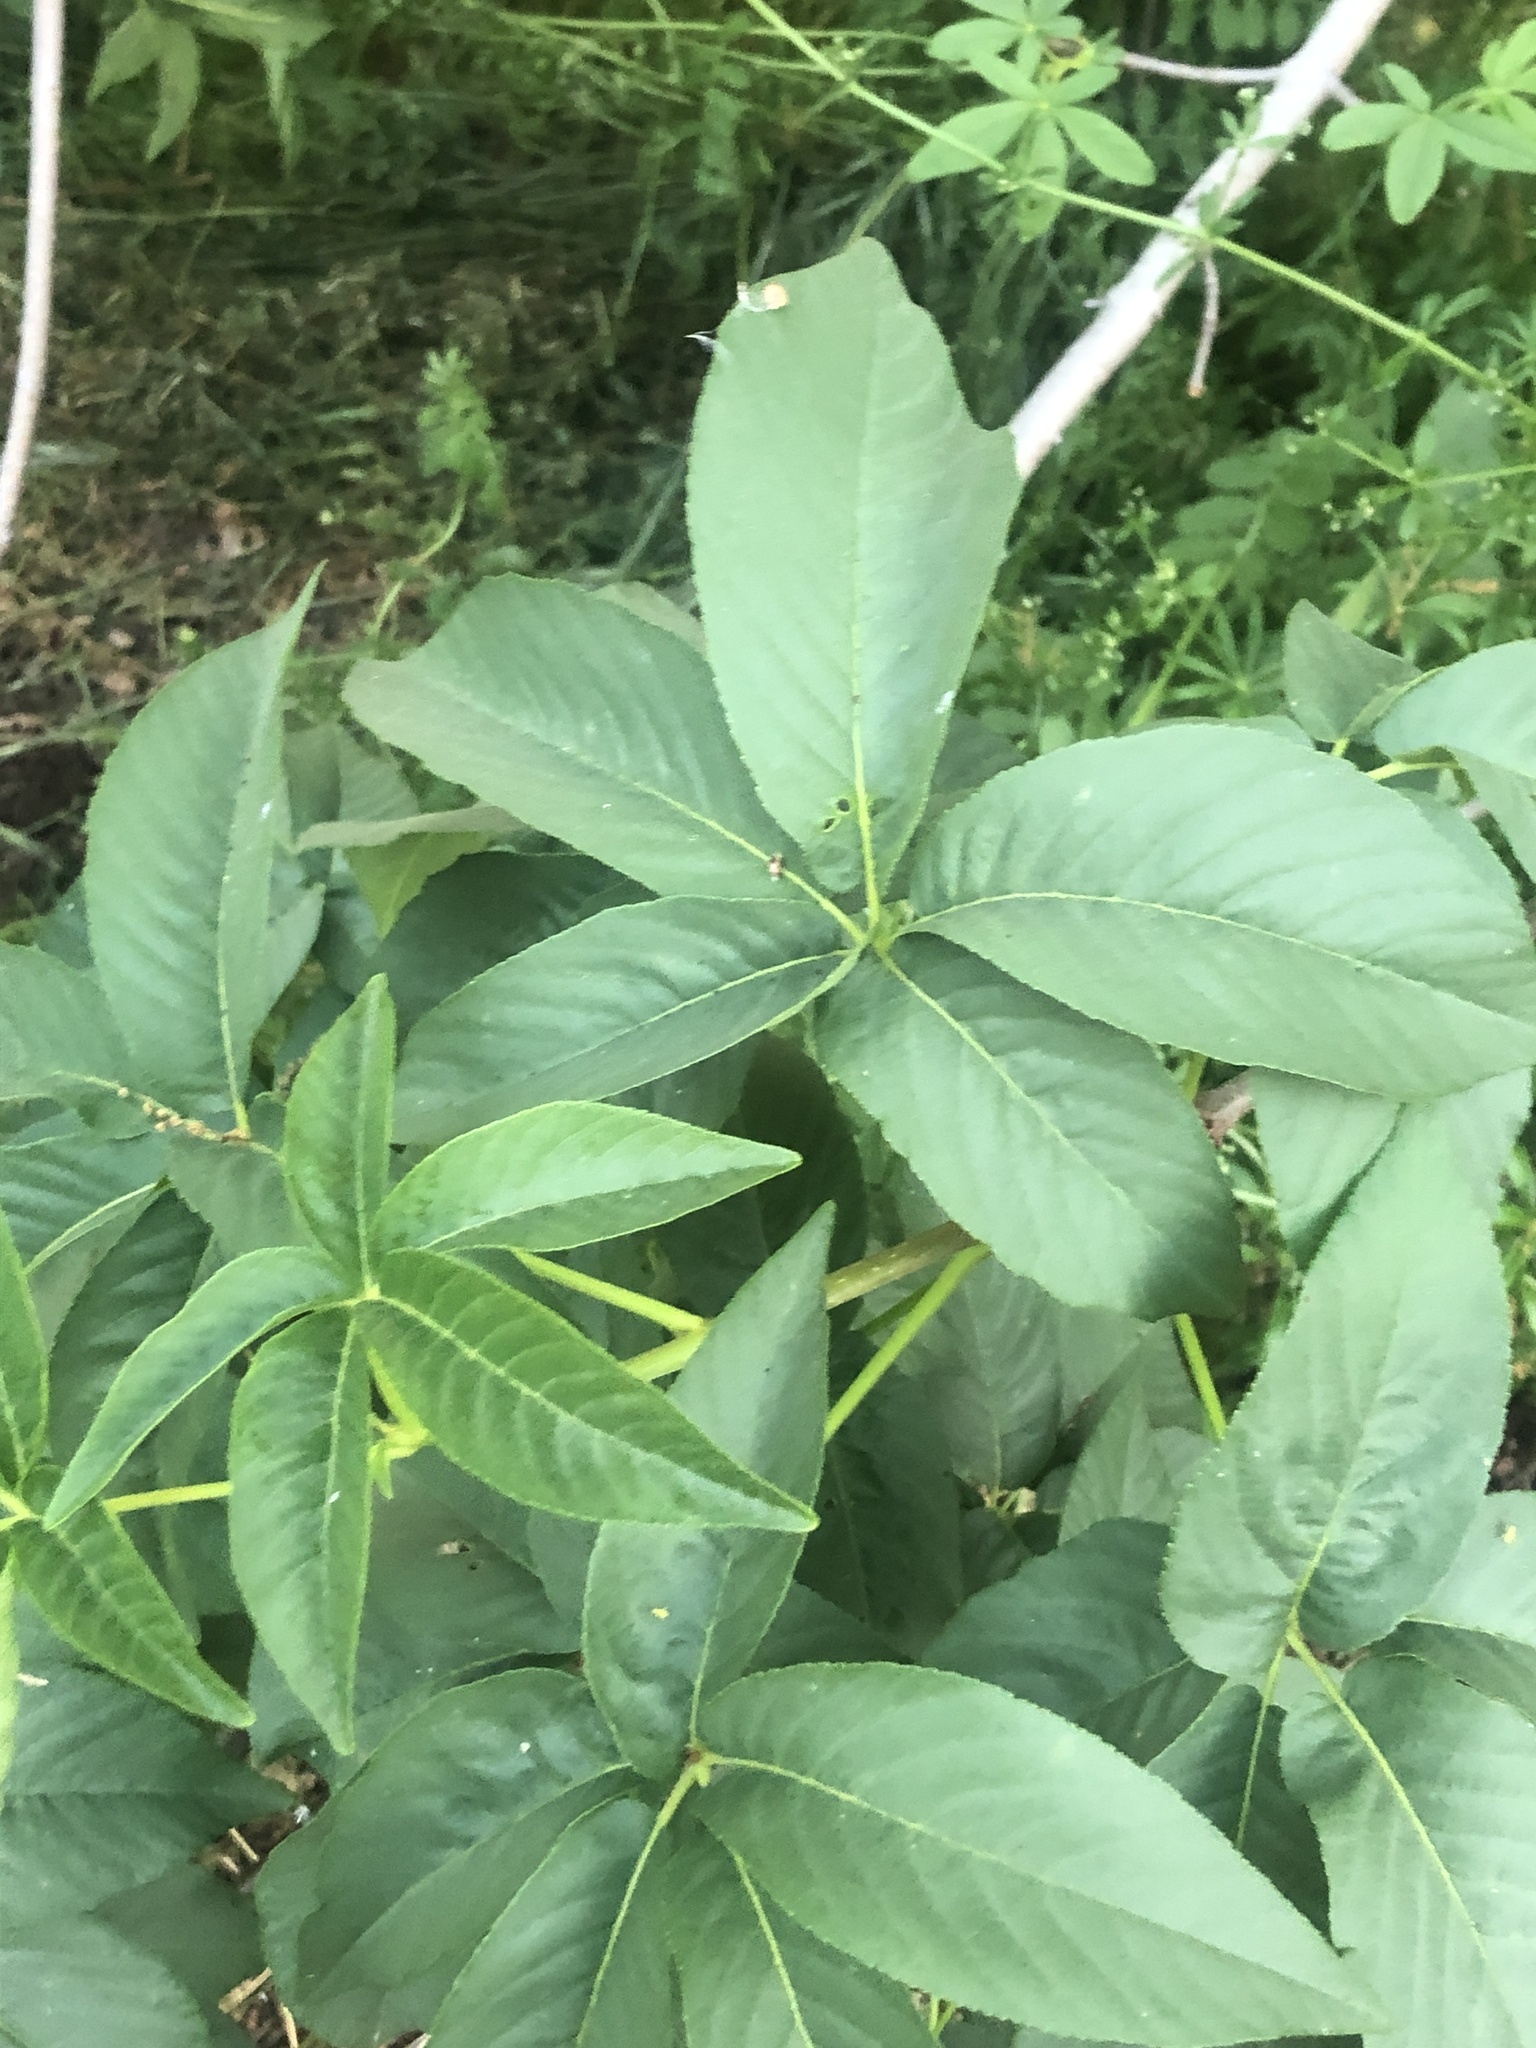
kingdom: Plantae
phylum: Tracheophyta
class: Magnoliopsida
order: Sapindales
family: Sapindaceae
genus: Aesculus
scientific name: Aesculus californica
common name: California buckeye
